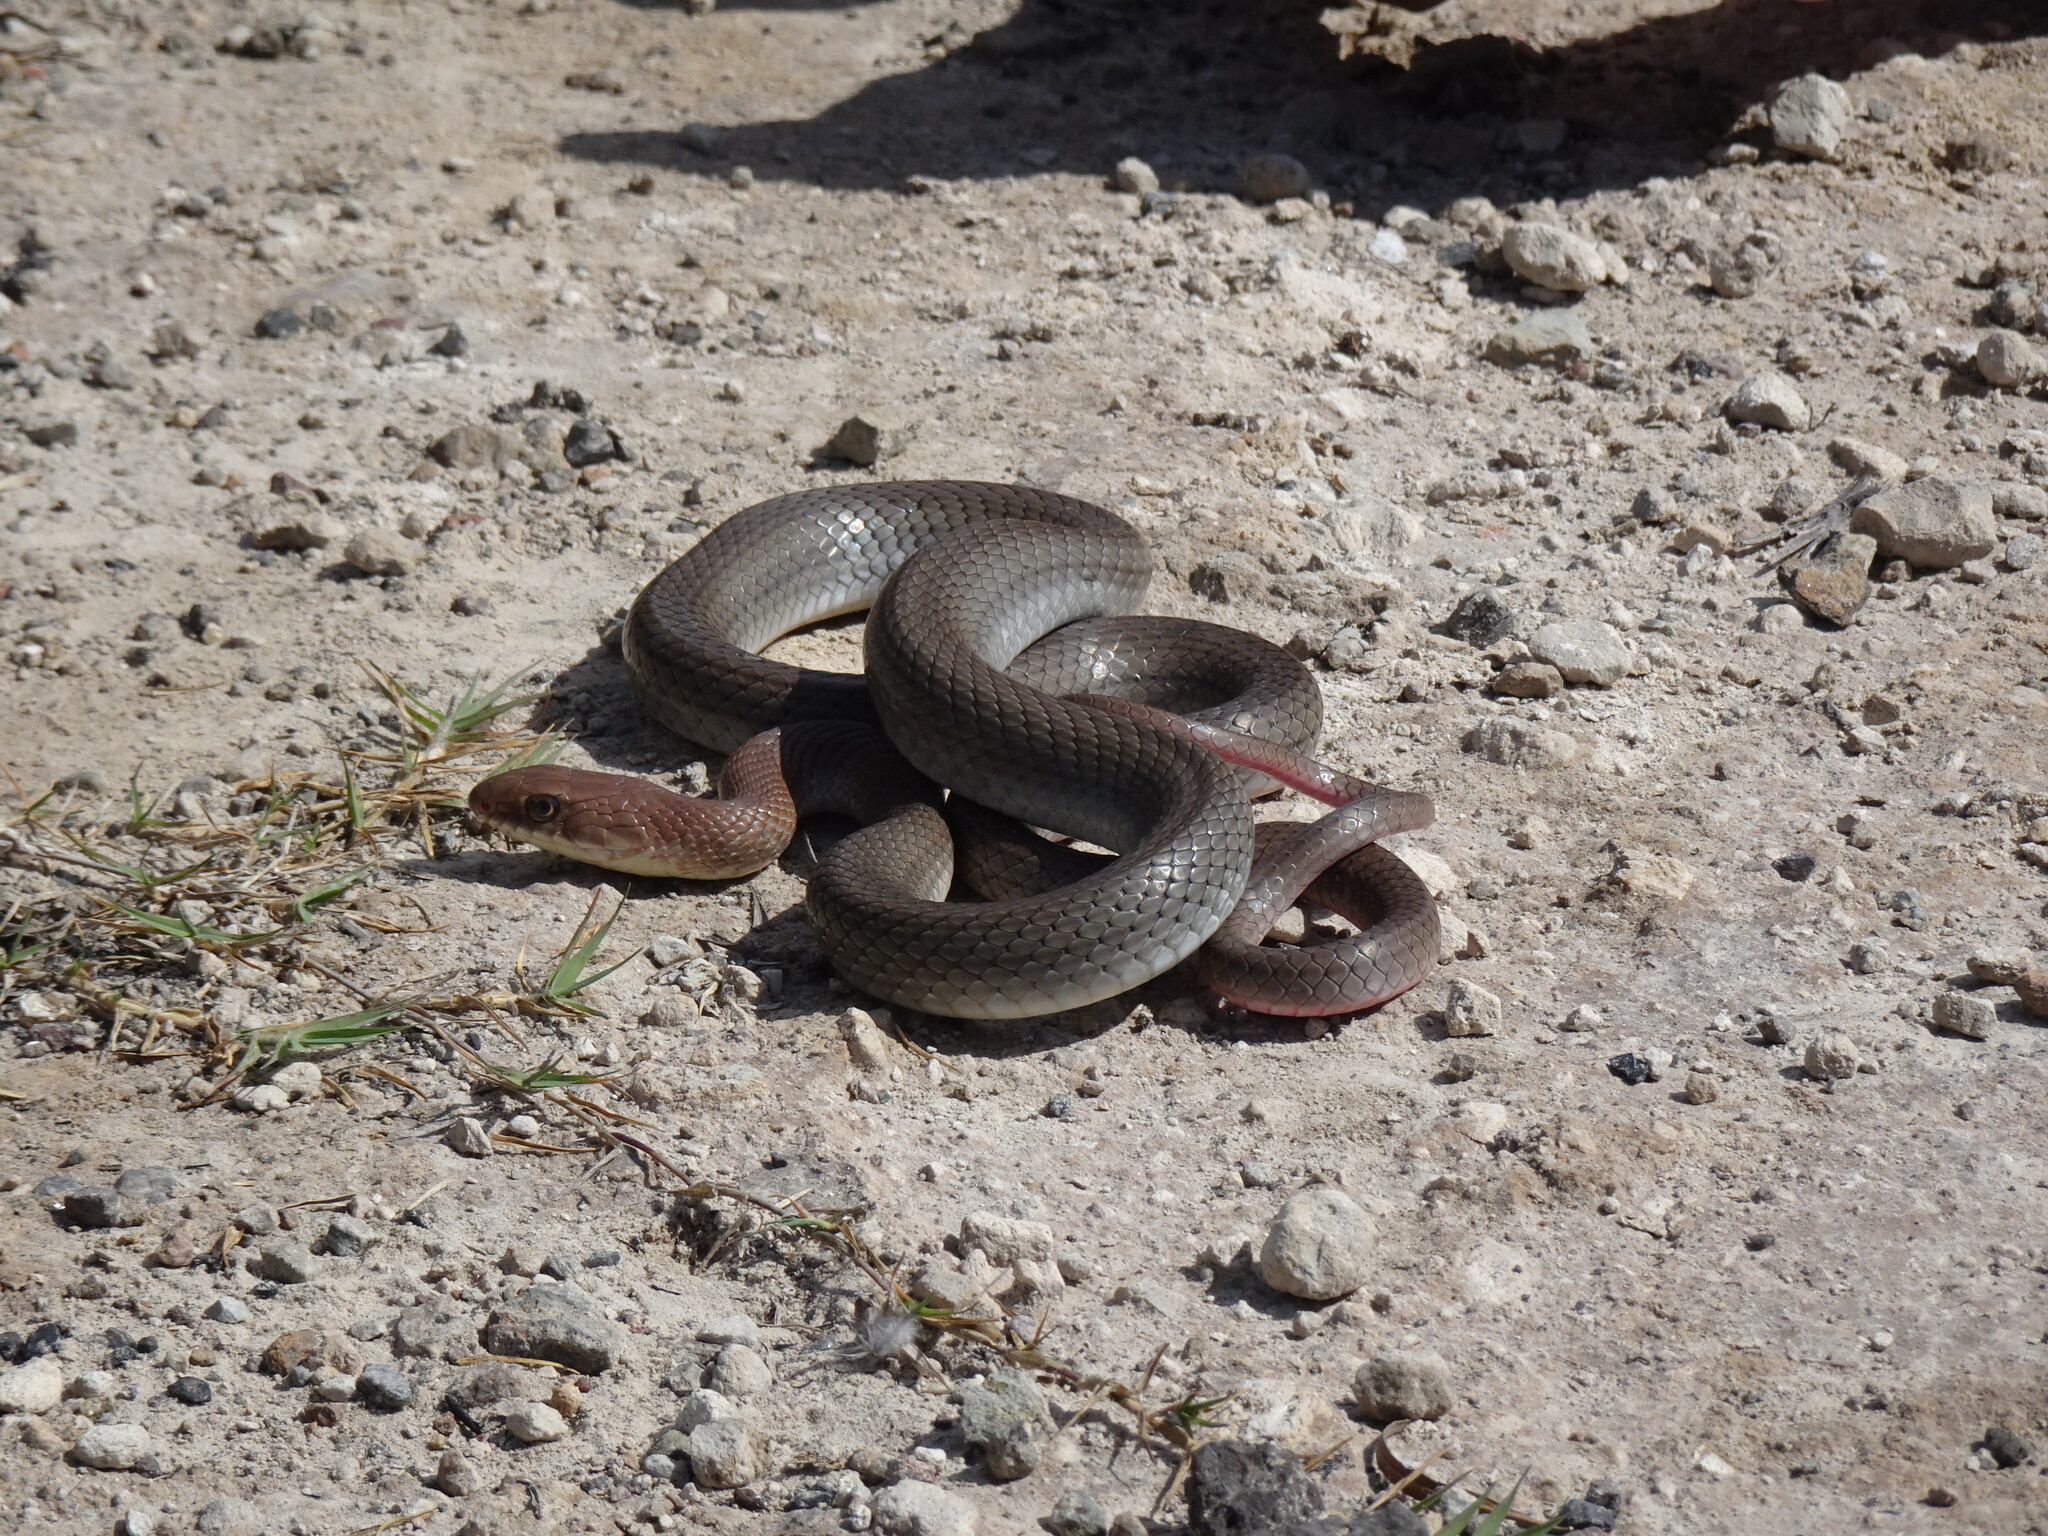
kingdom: Animalia
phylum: Chordata
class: Squamata
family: Colubridae
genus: Masticophis
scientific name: Masticophis mentovarius
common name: Neotropical whip snake
